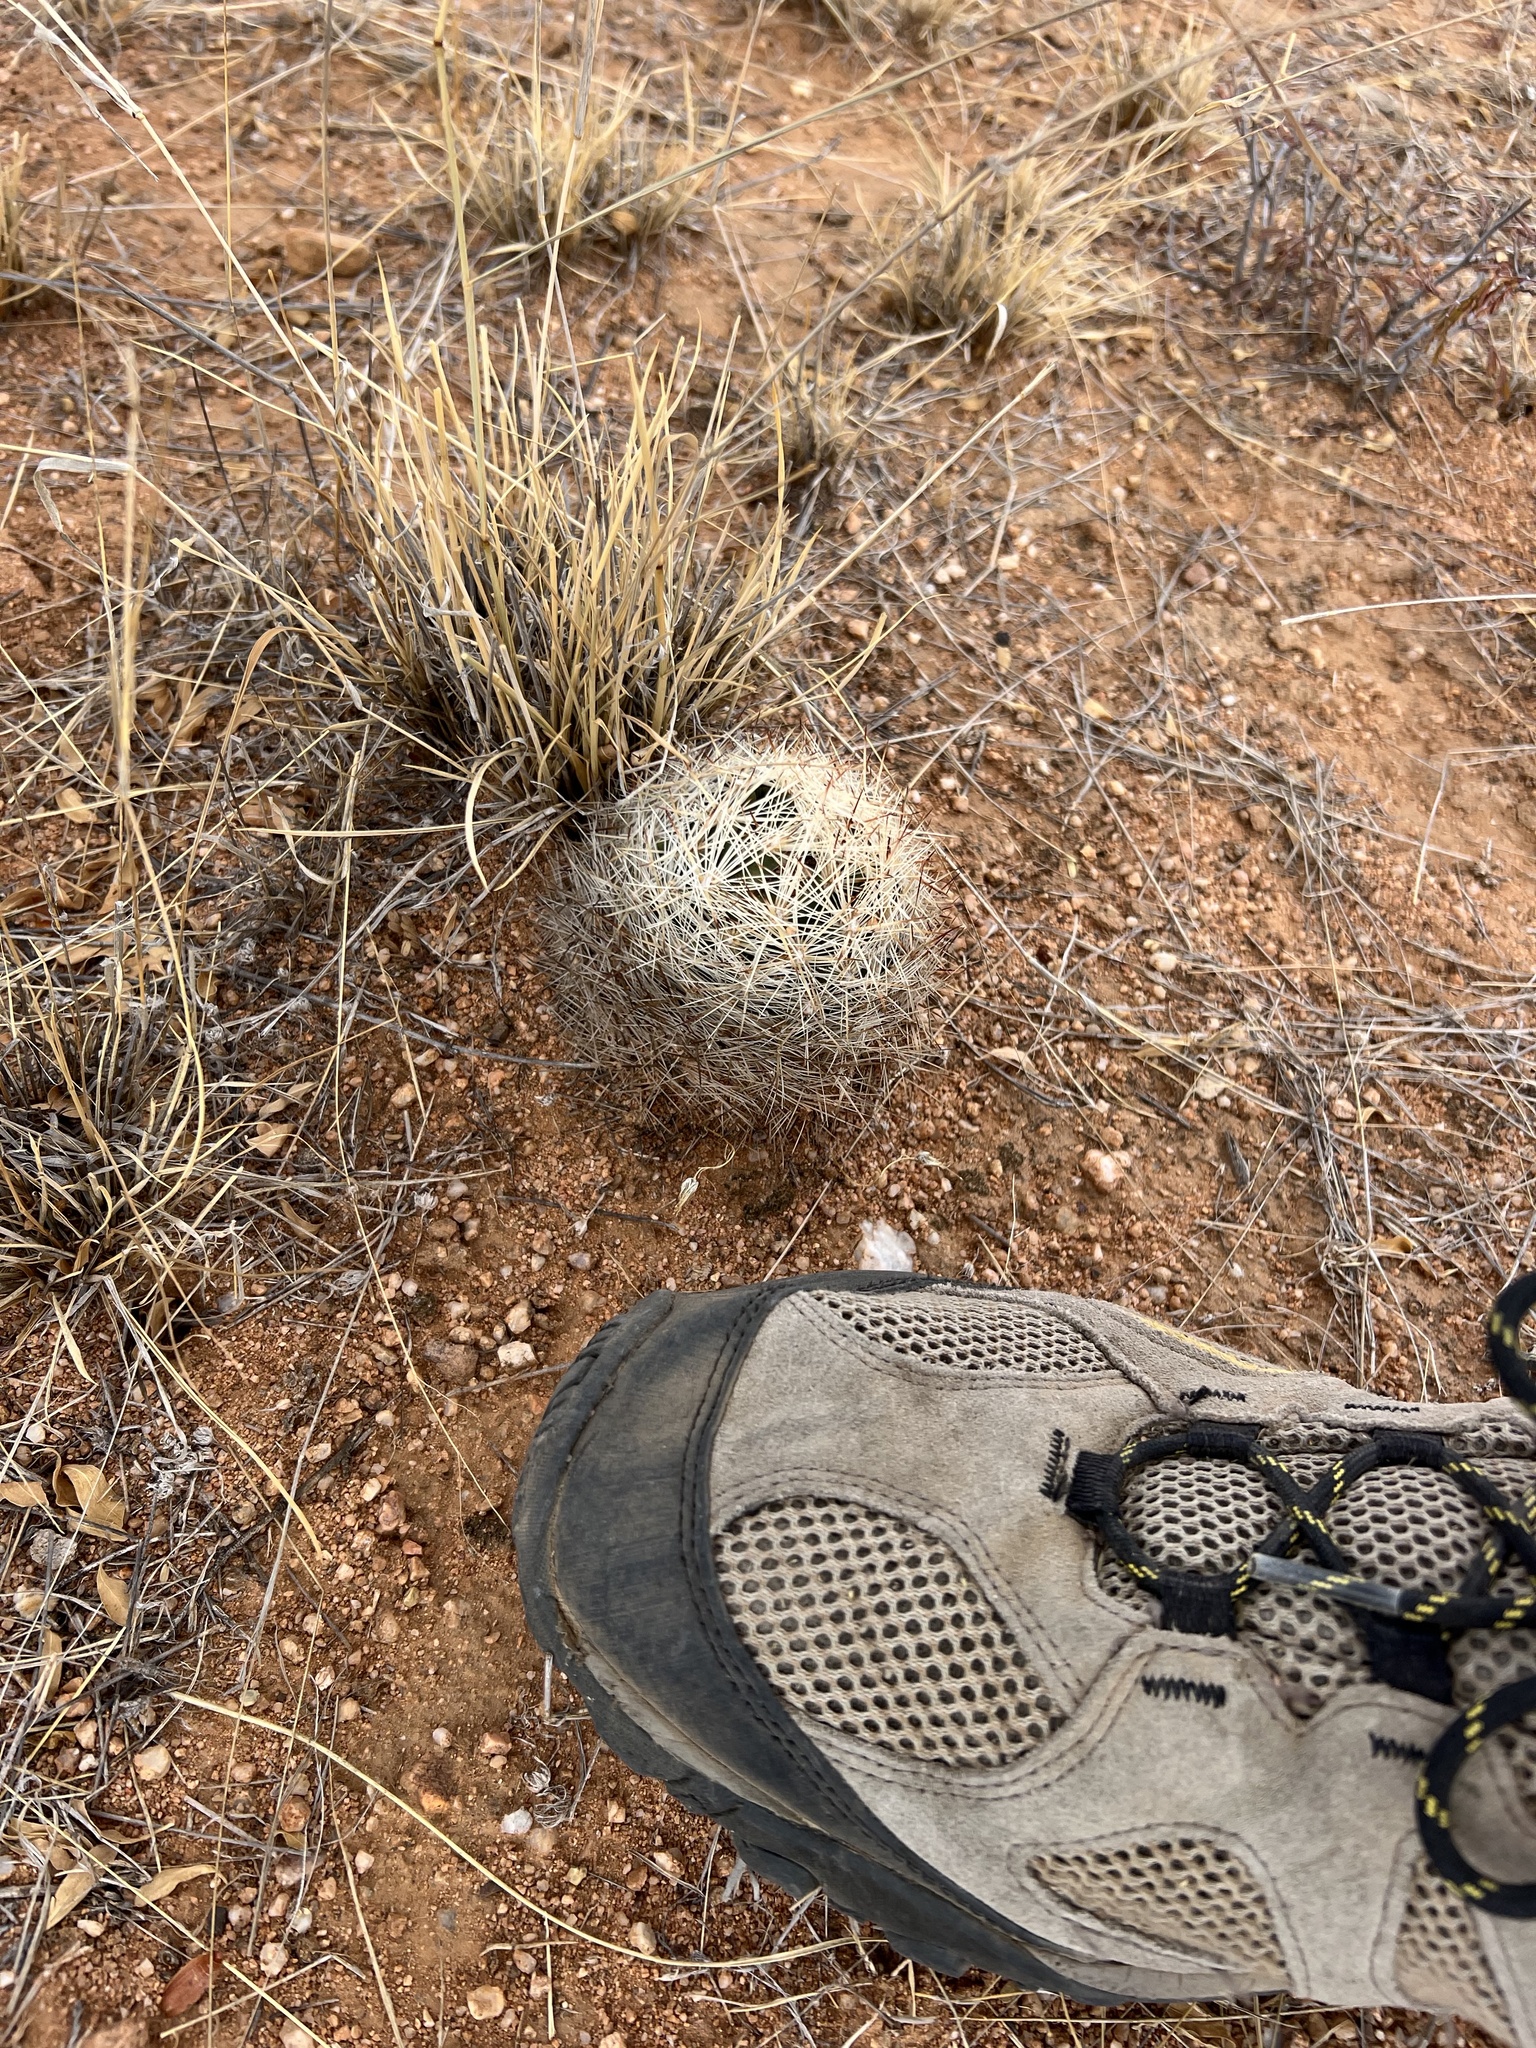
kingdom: Plantae
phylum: Tracheophyta
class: Magnoliopsida
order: Caryophyllales
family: Cactaceae
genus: Pelecyphora
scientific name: Pelecyphora vivipara
